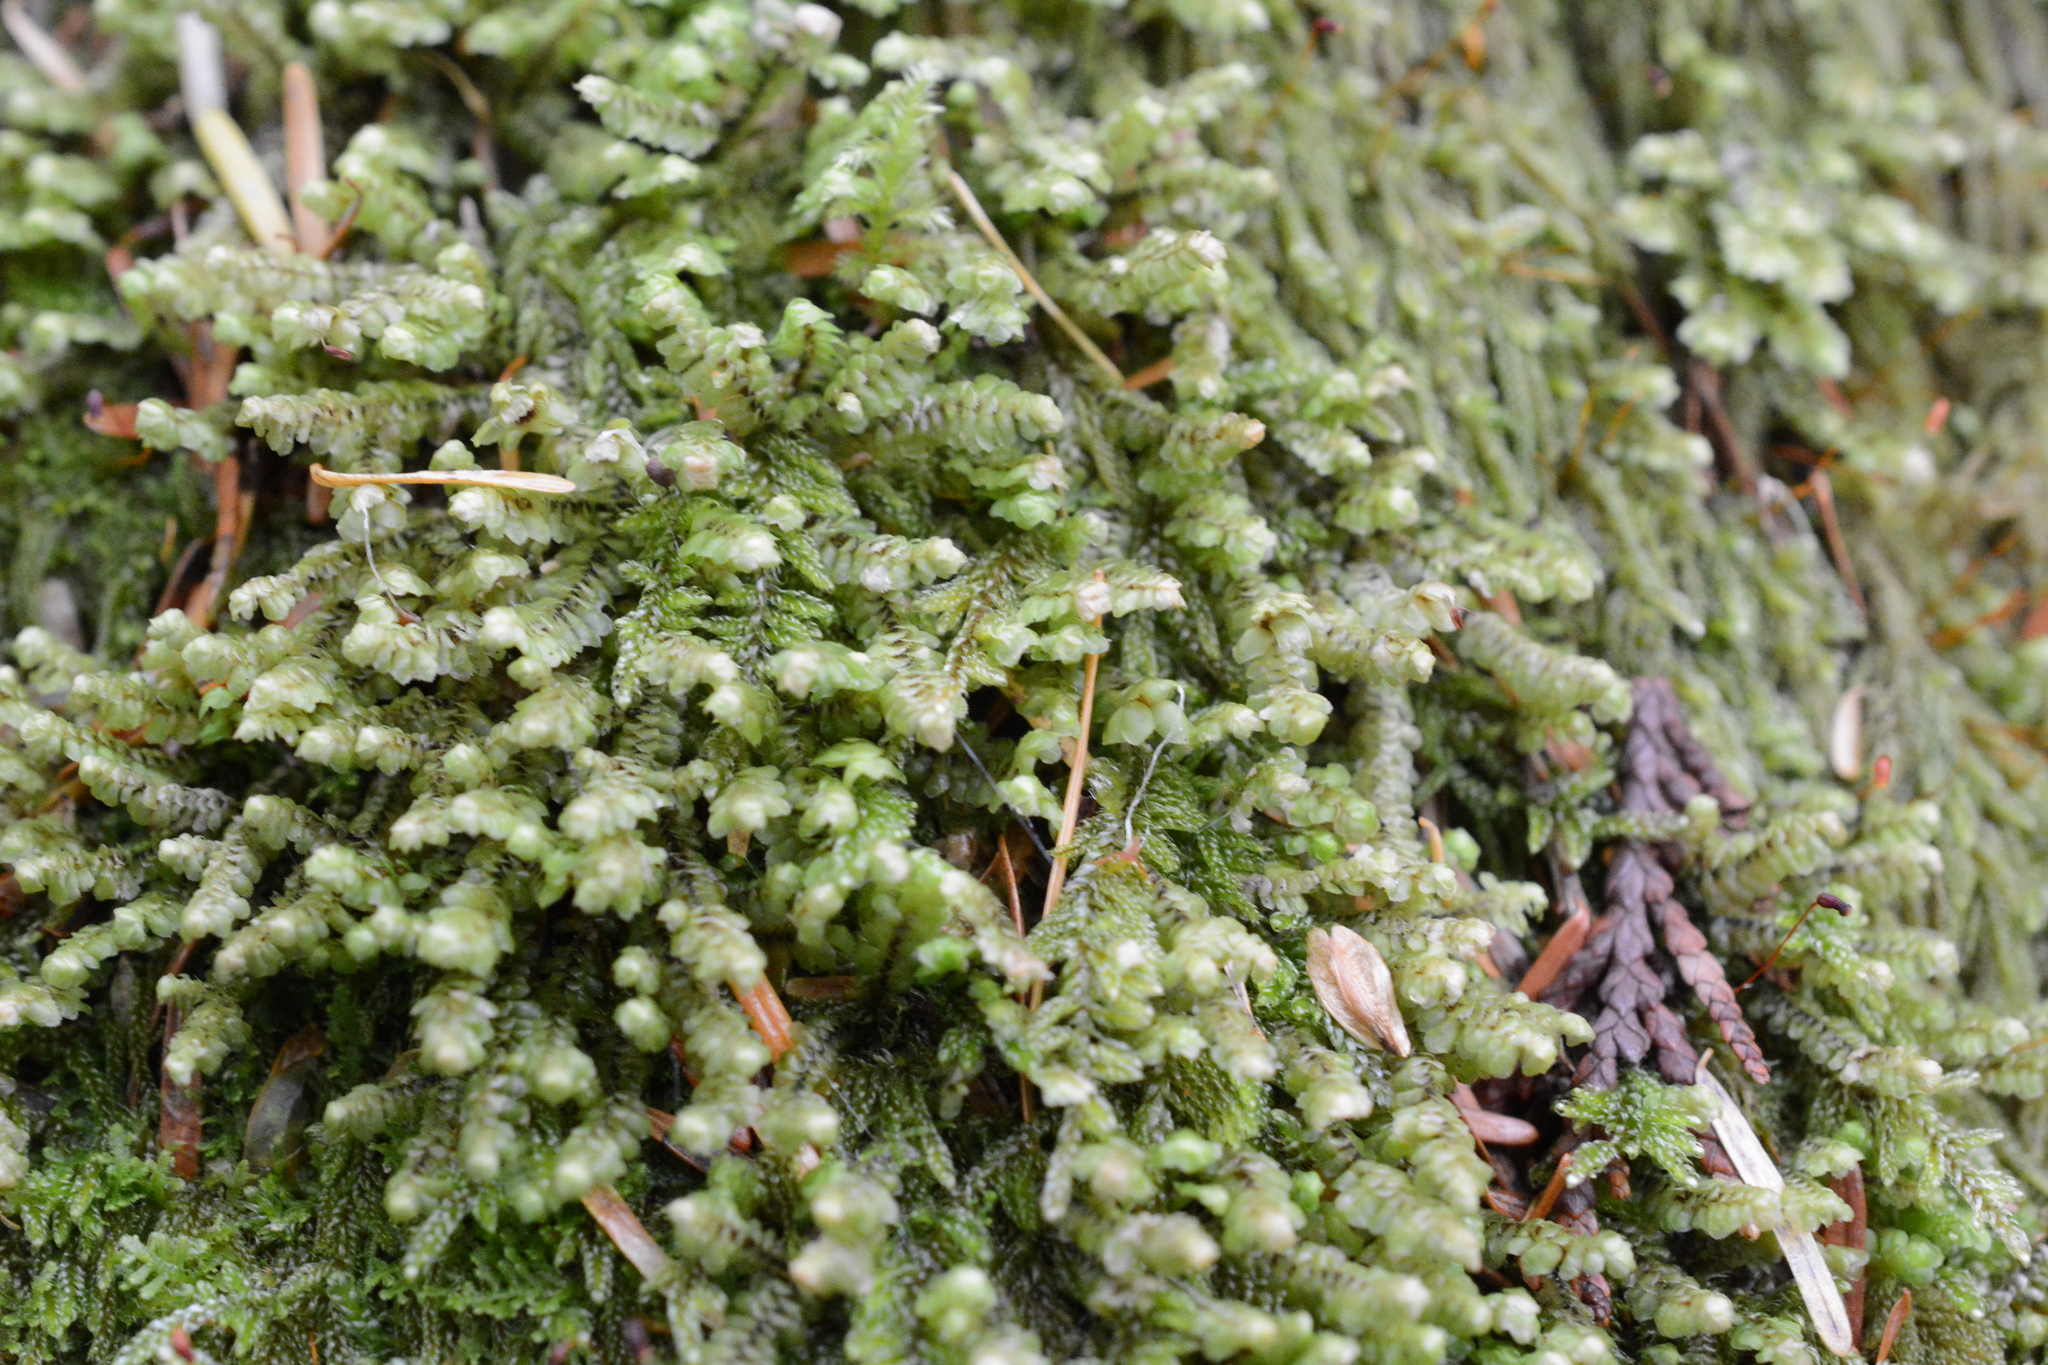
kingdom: Plantae
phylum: Marchantiophyta
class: Jungermanniopsida
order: Jungermanniales
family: Scapaniaceae
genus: Scapania
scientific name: Scapania bolanderi
